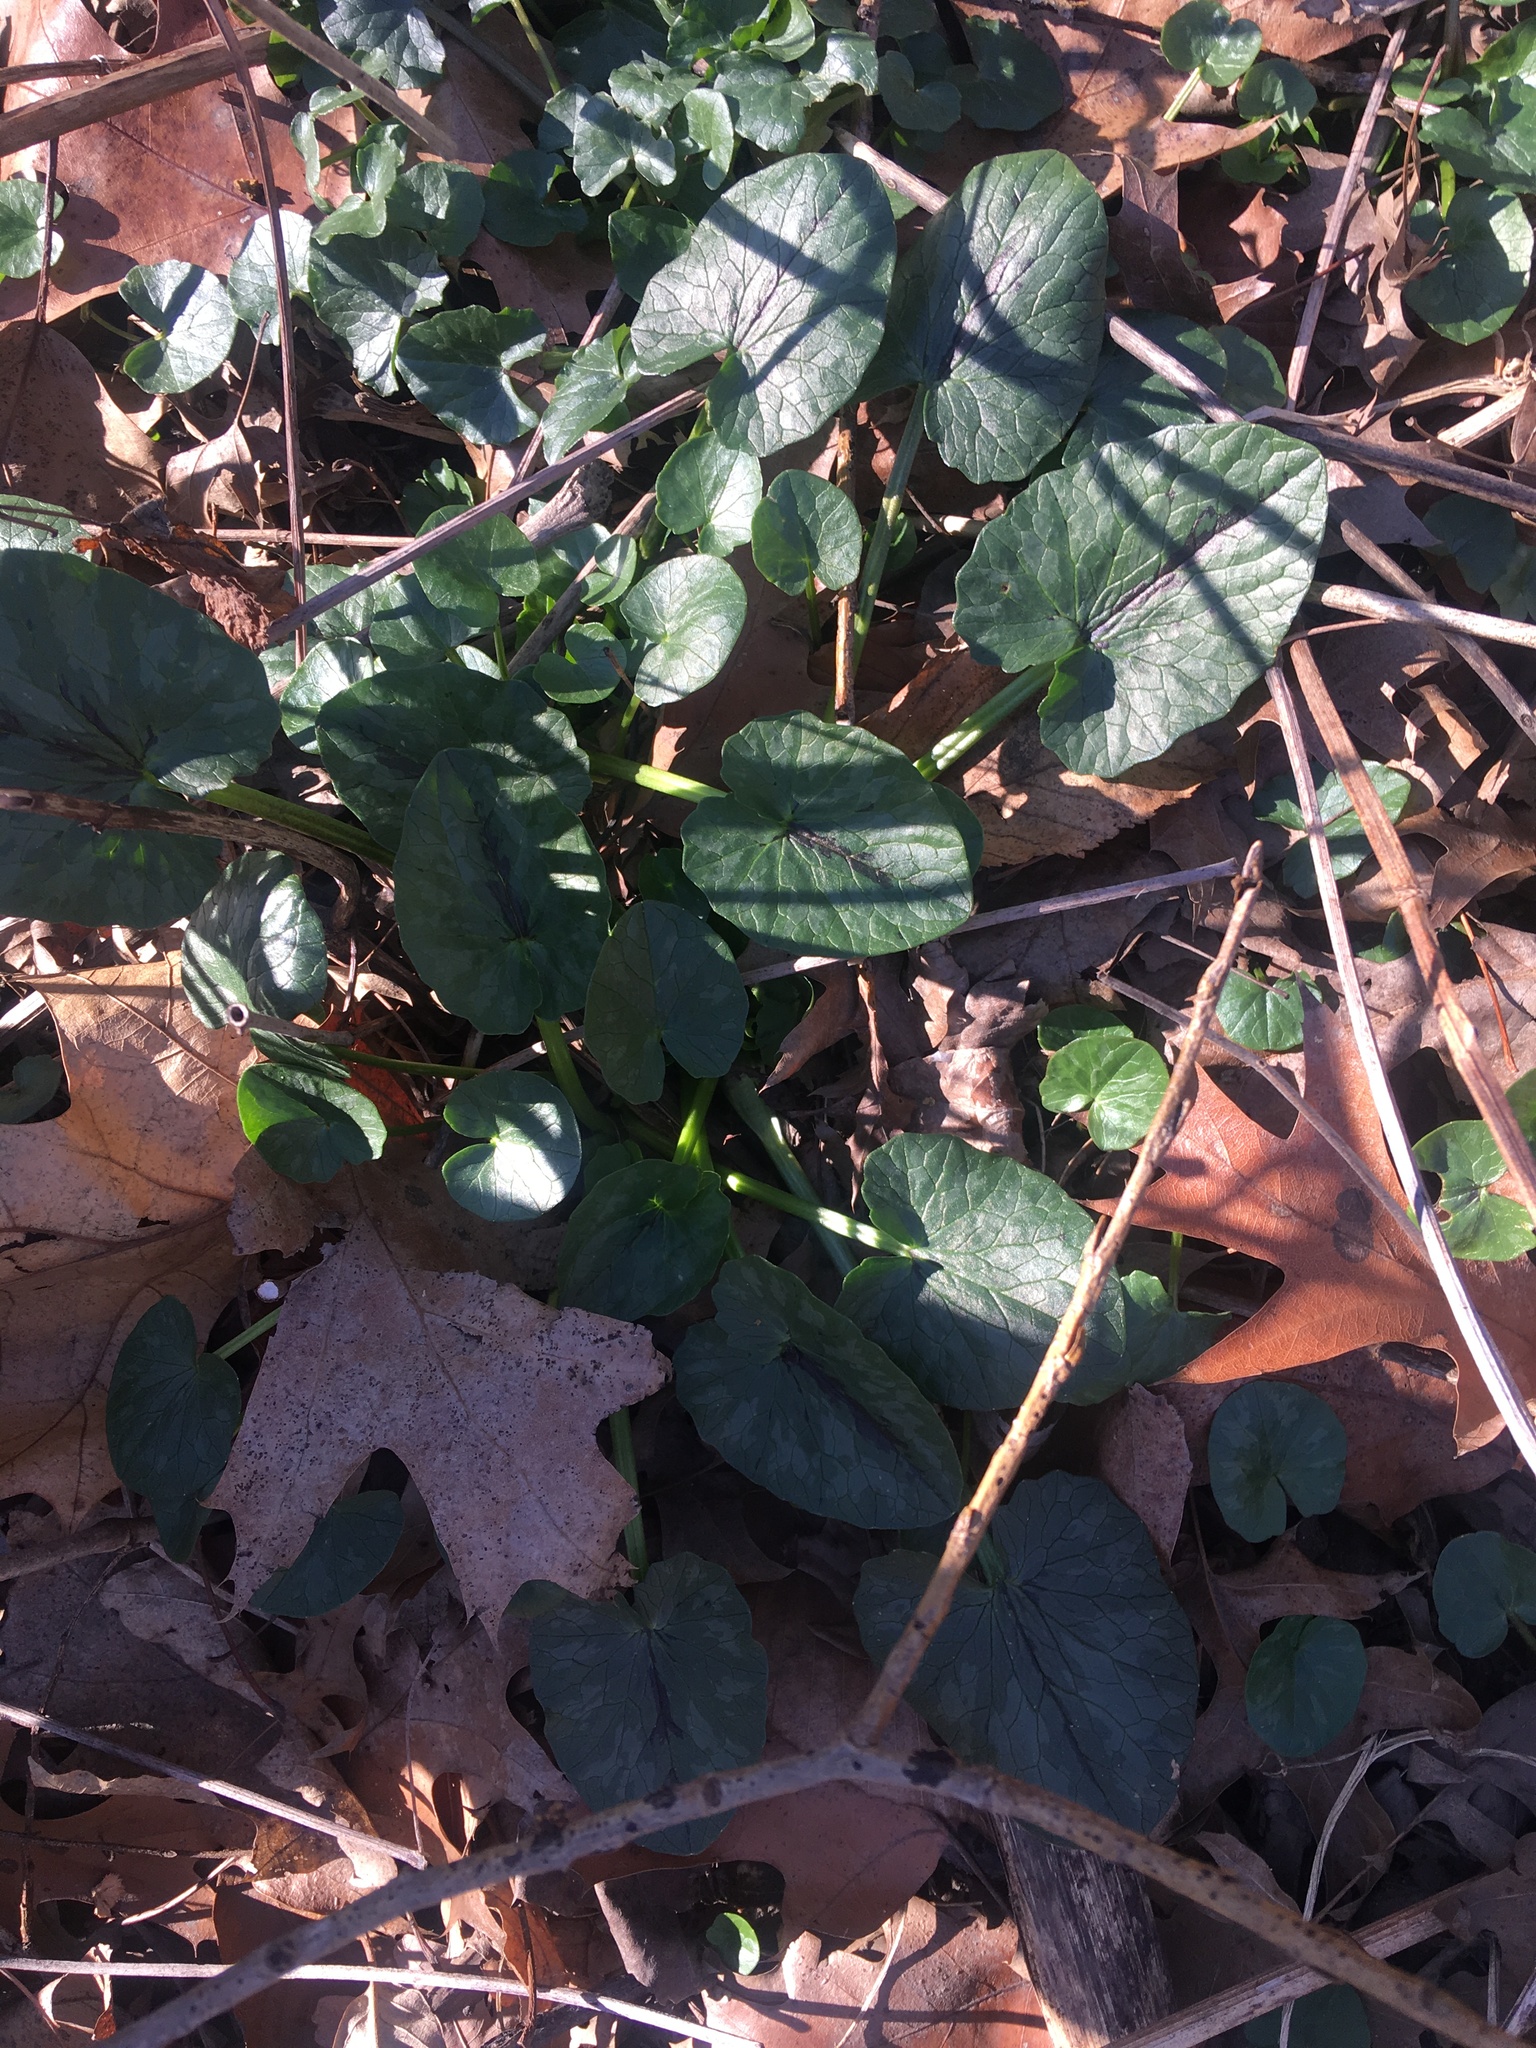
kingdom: Plantae
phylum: Tracheophyta
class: Magnoliopsida
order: Ranunculales
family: Ranunculaceae
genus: Ficaria
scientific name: Ficaria verna
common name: Lesser celandine
